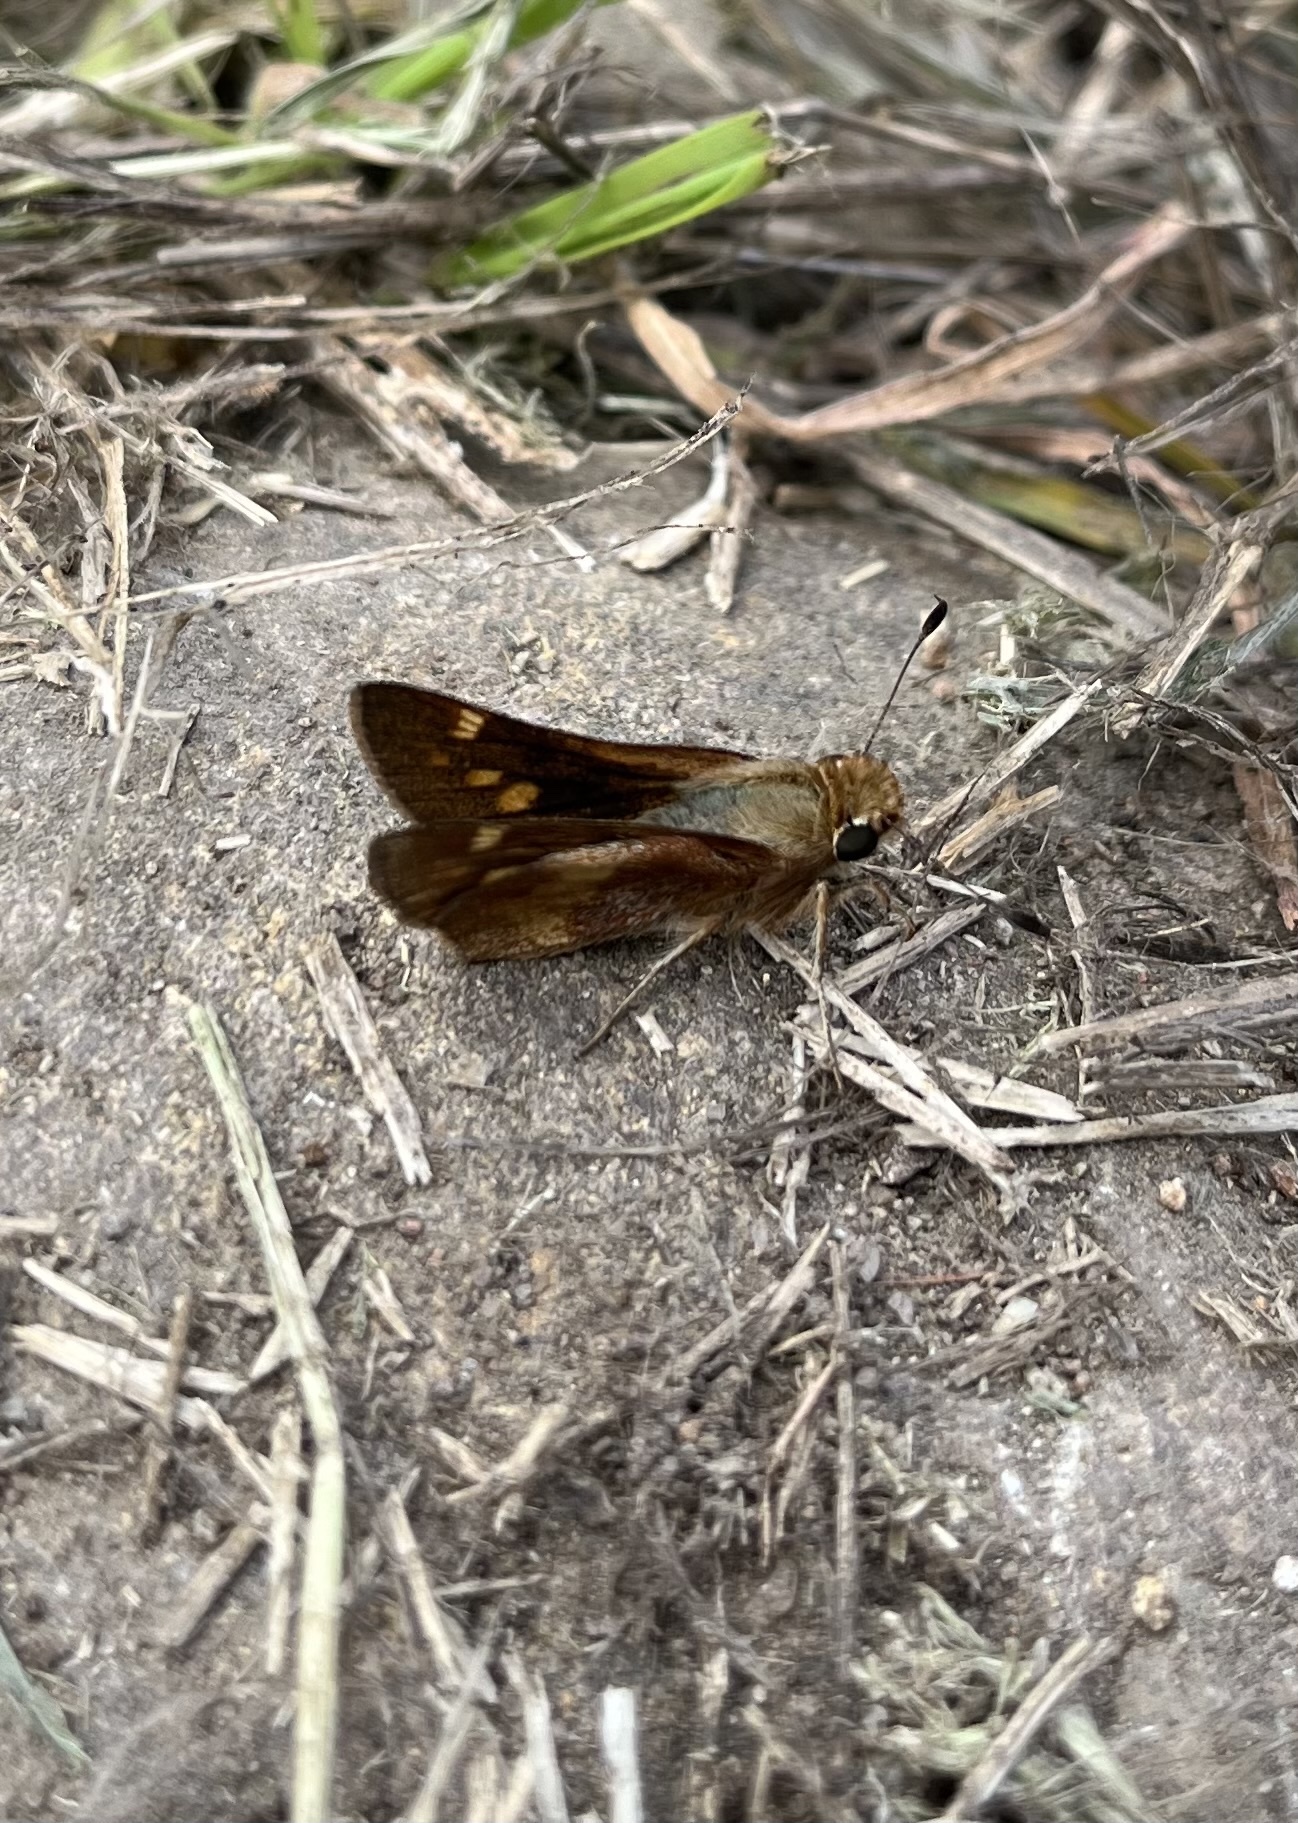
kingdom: Animalia
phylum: Arthropoda
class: Insecta
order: Lepidoptera
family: Hesperiidae
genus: Lon
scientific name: Lon melane
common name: Umber skipper
